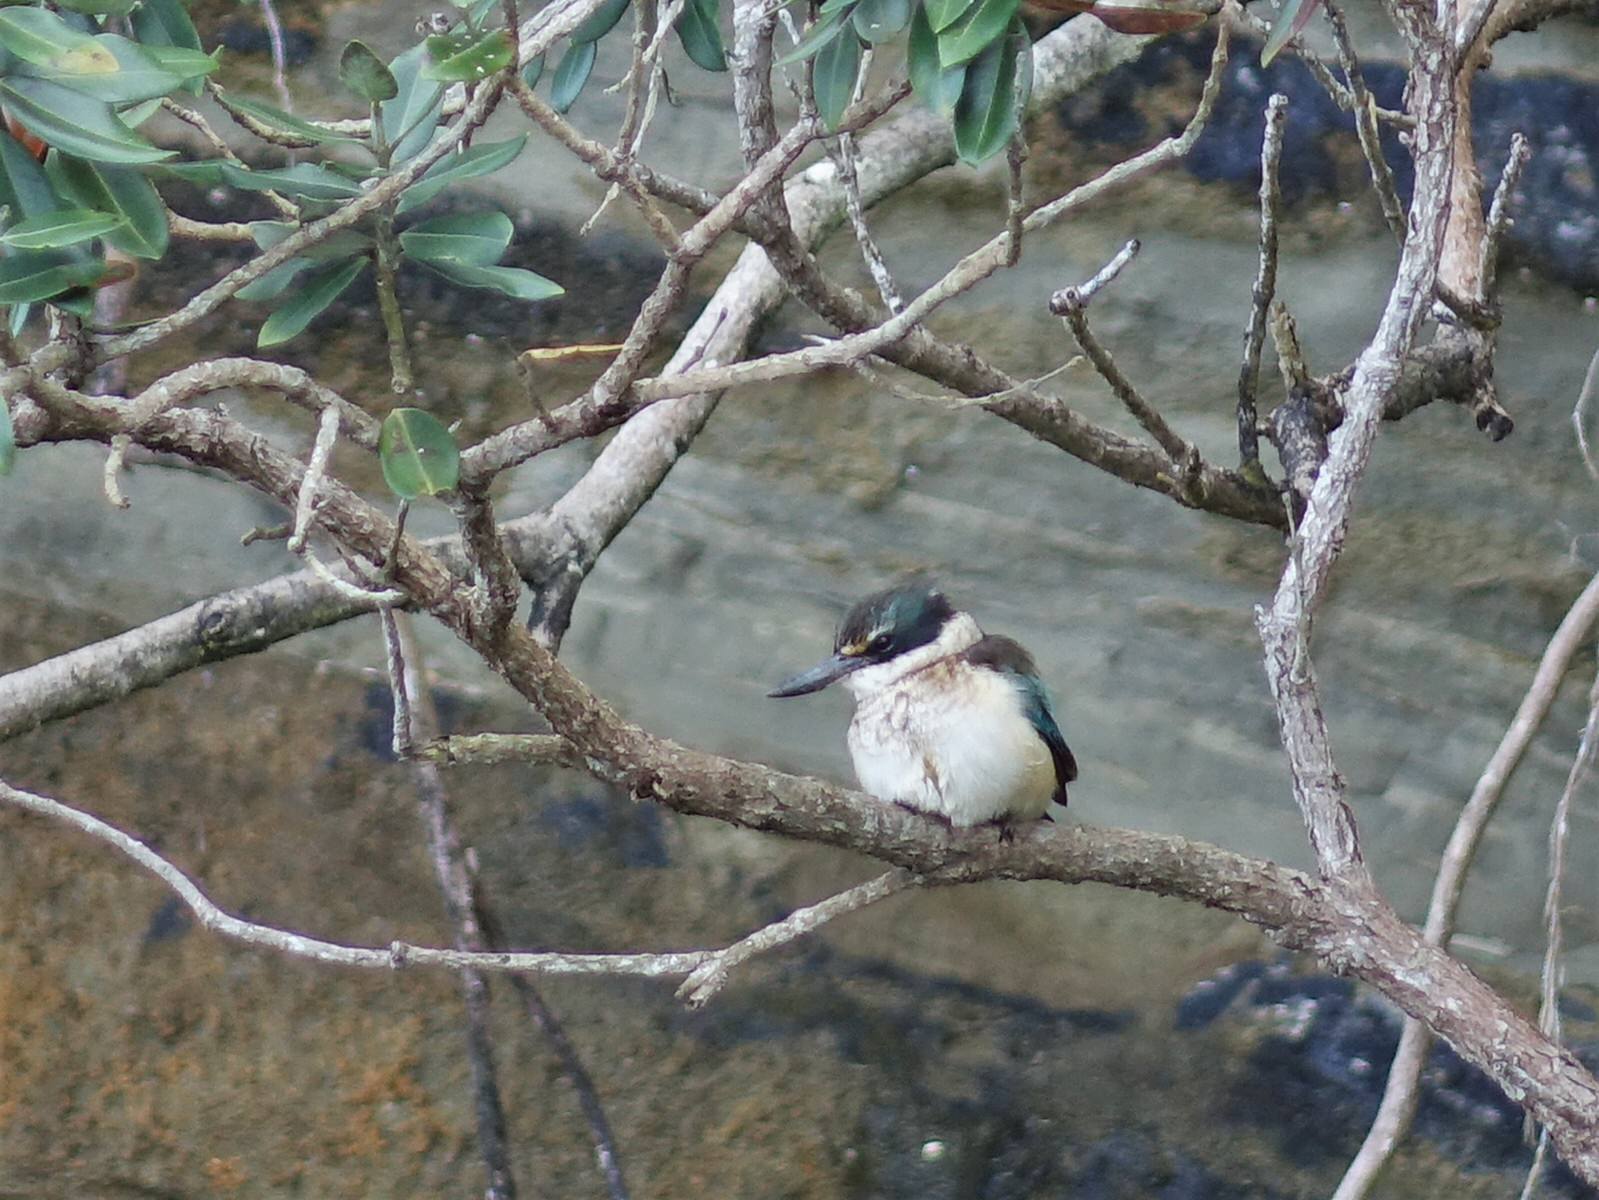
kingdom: Animalia
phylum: Chordata
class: Aves
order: Coraciiformes
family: Alcedinidae
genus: Todiramphus
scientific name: Todiramphus sanctus
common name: Sacred kingfisher
